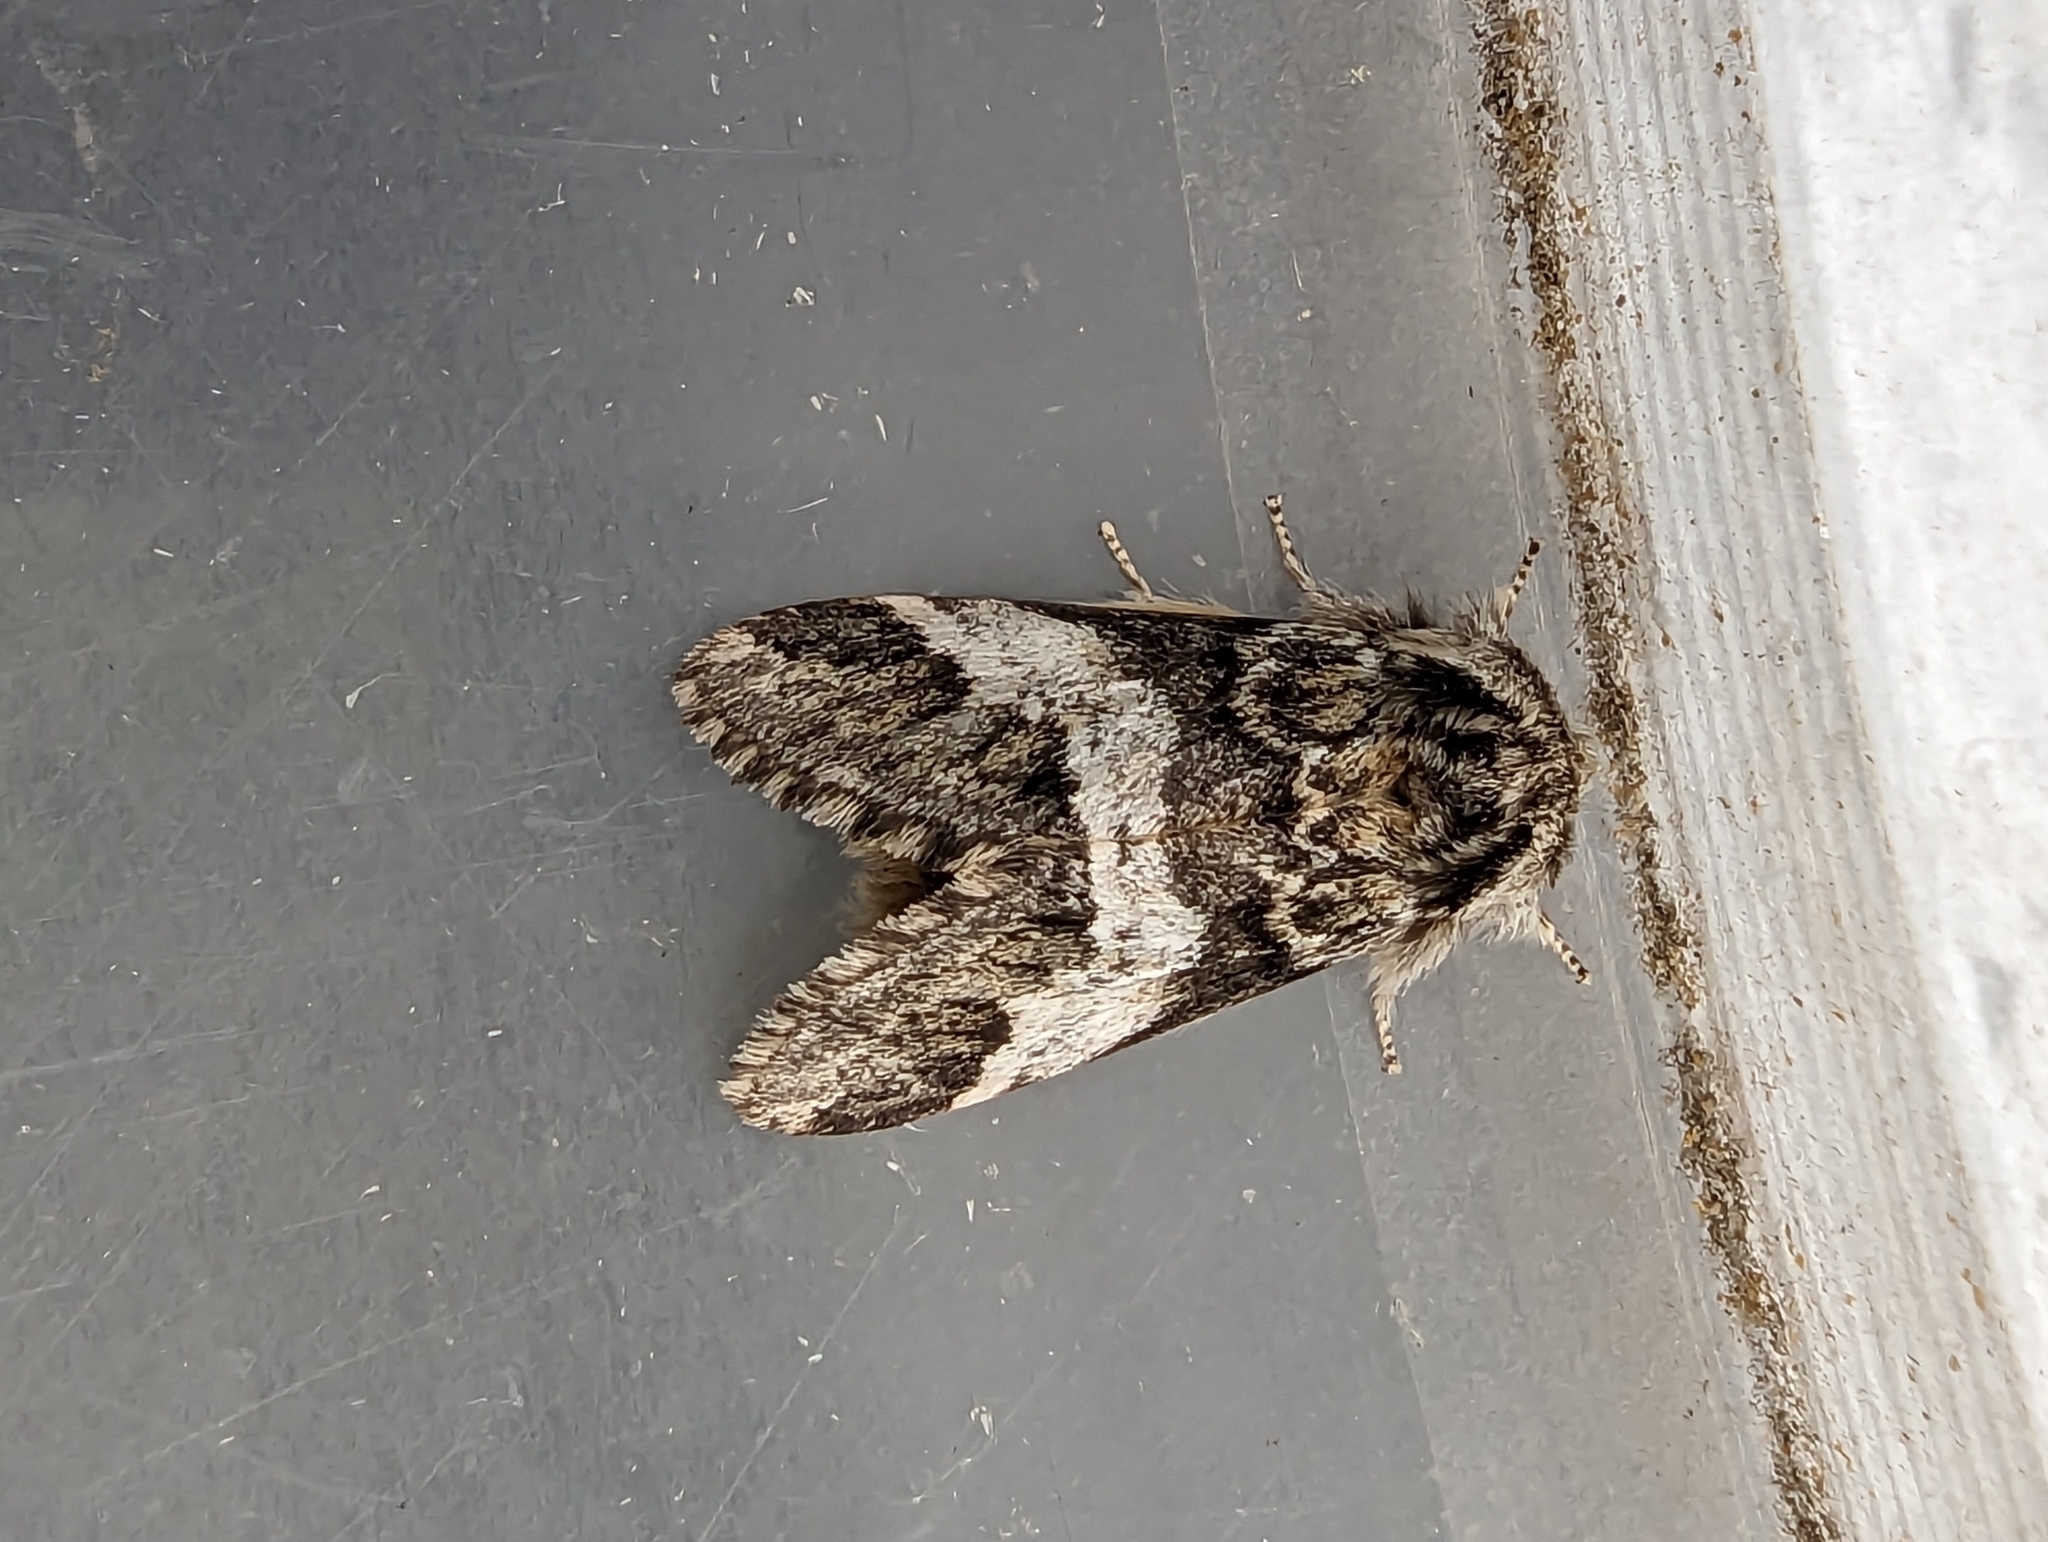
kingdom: Animalia
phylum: Arthropoda
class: Insecta
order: Lepidoptera
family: Notodontidae
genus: Drymonia
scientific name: Drymonia dodonaea
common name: Marbled brown
